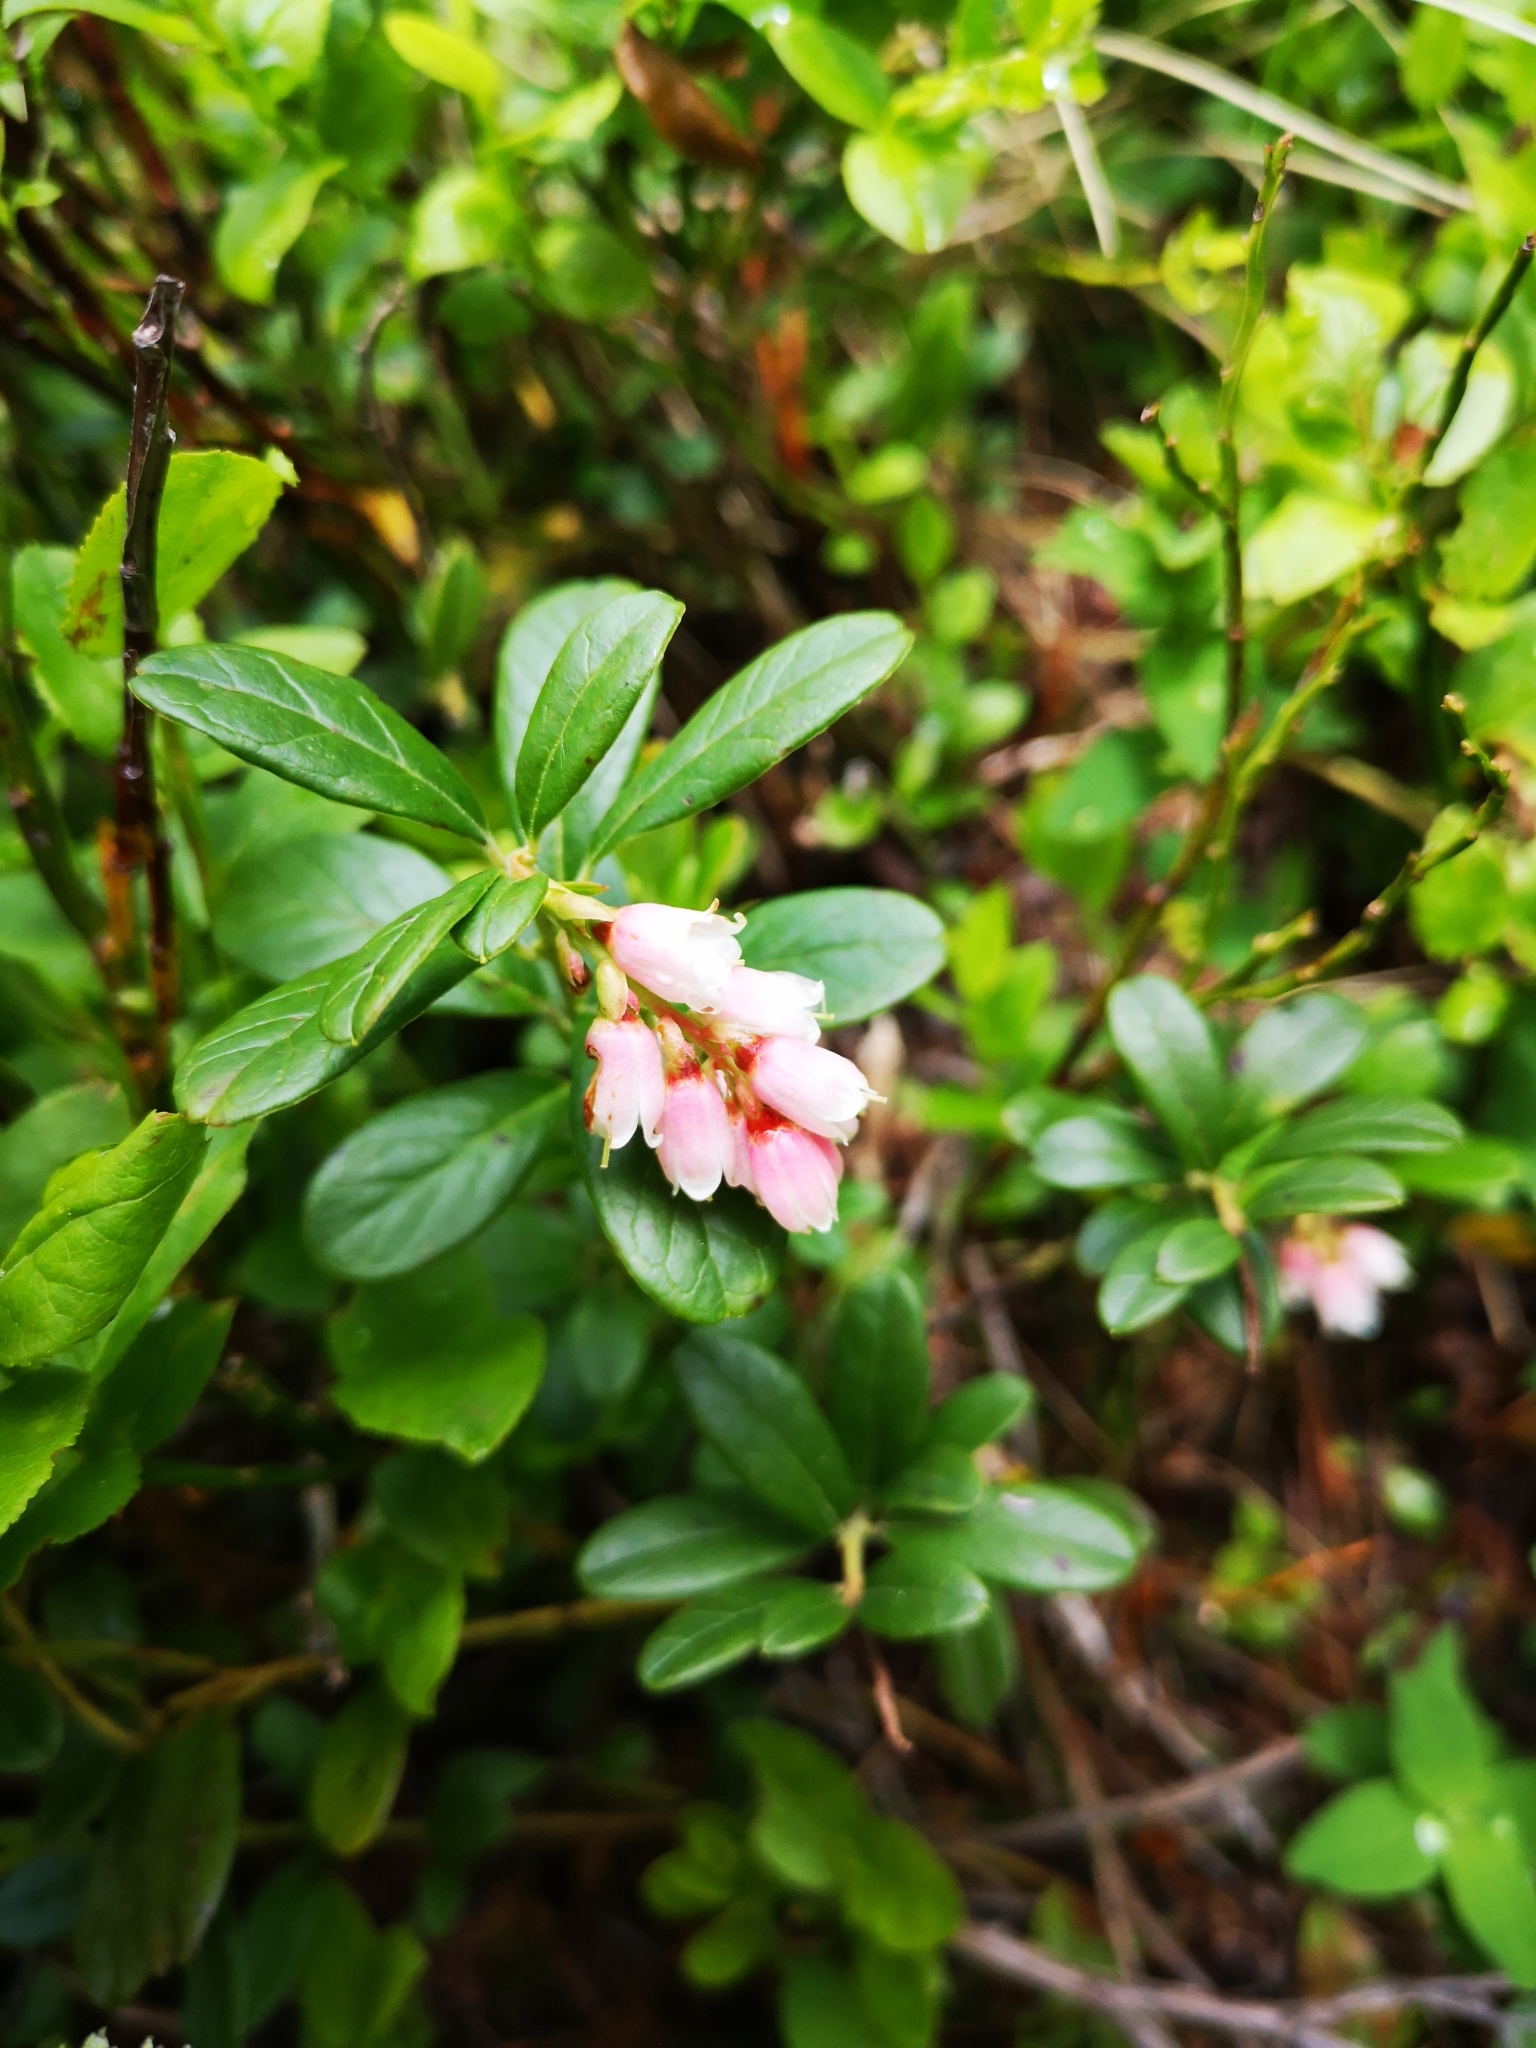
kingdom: Plantae
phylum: Tracheophyta
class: Magnoliopsida
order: Ericales
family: Ericaceae
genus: Vaccinium
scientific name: Vaccinium vitis-idaea
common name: Cowberry
